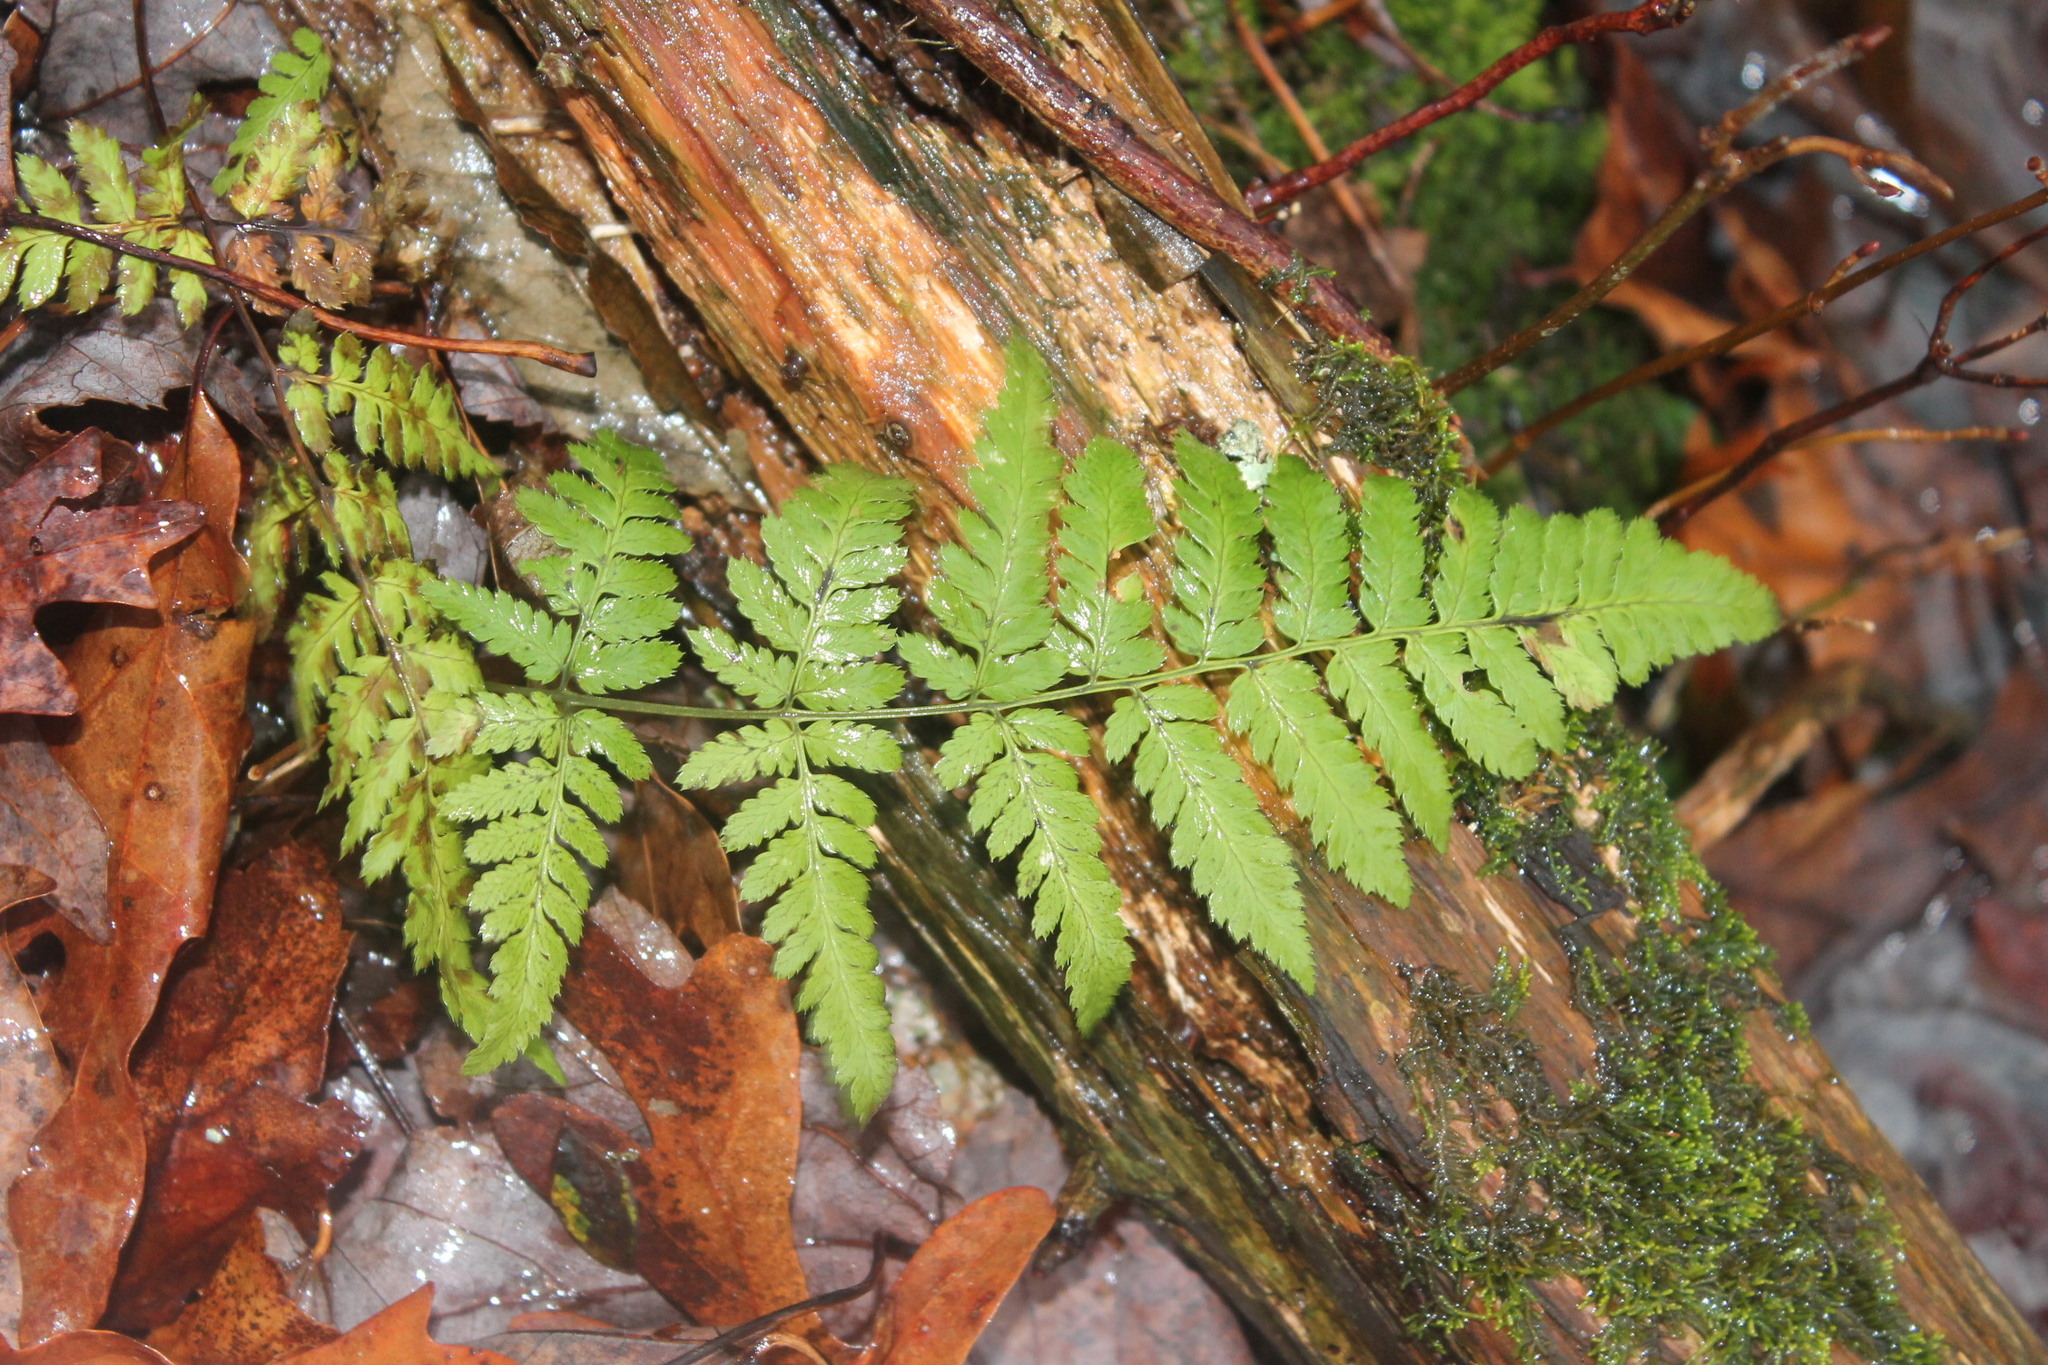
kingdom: Plantae
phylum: Tracheophyta
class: Polypodiopsida
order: Polypodiales
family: Dryopteridaceae
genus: Dryopteris
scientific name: Dryopteris carthusiana
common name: Narrow buckler-fern
